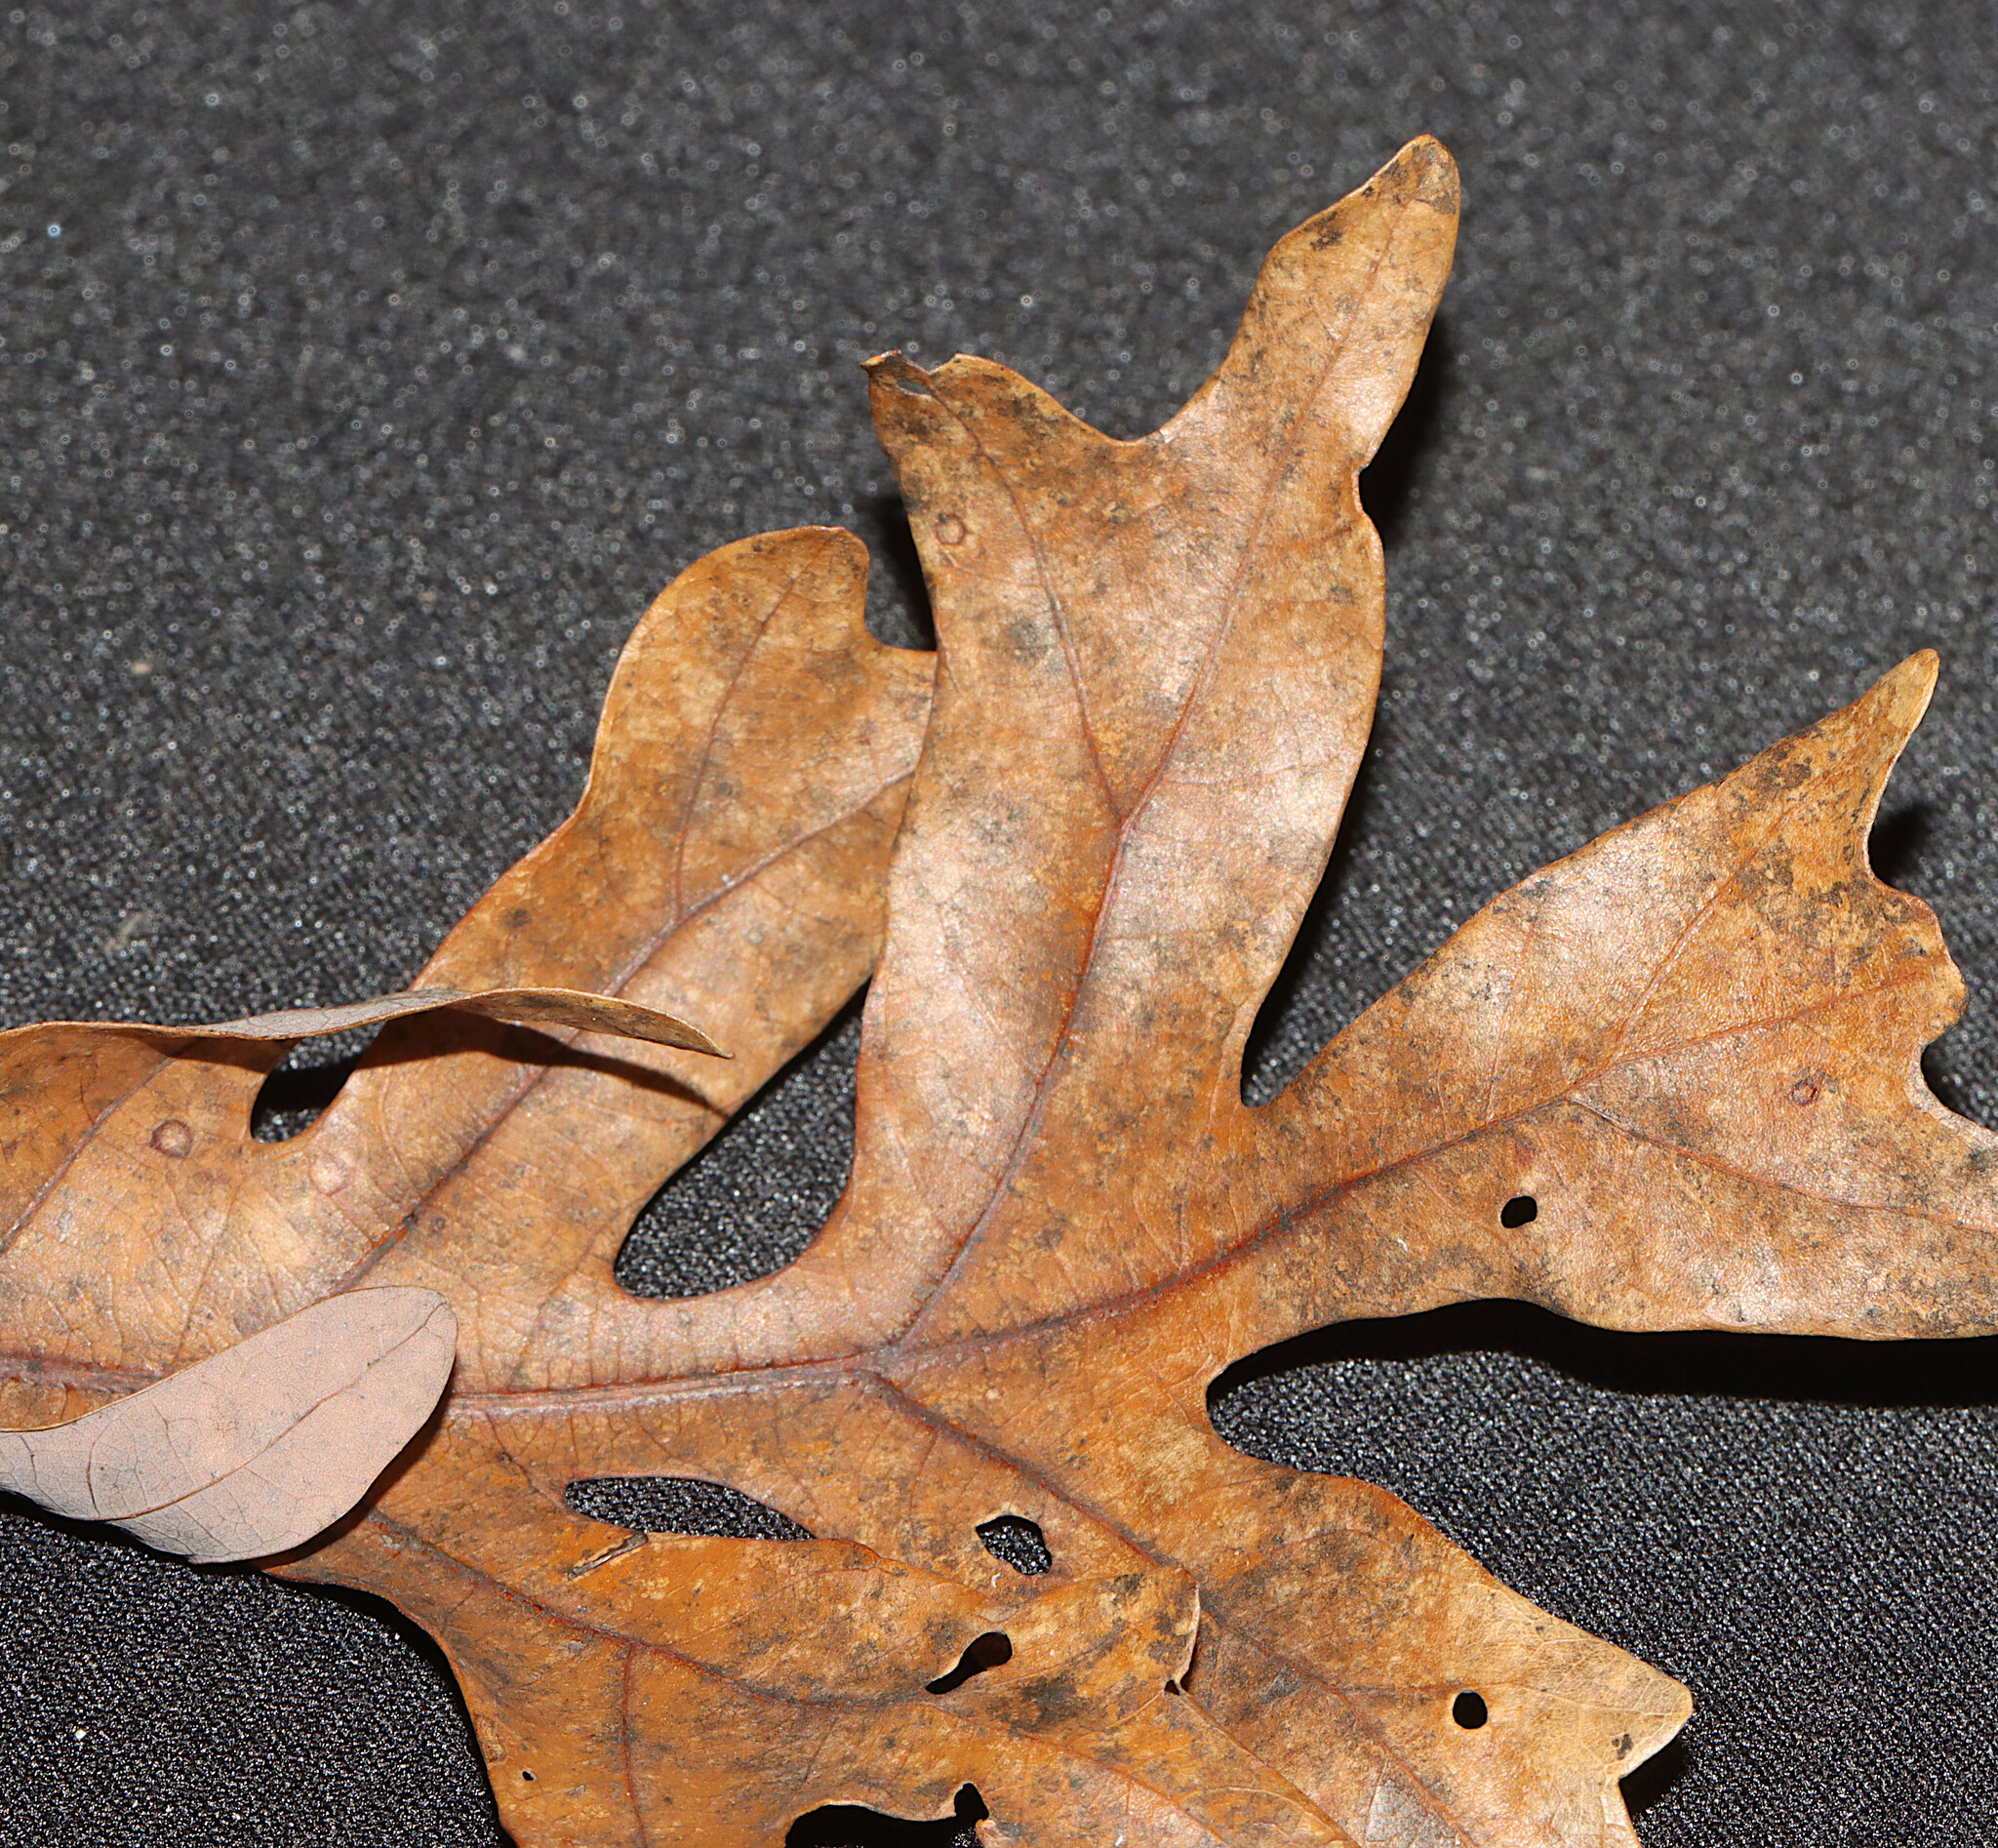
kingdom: Plantae
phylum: Tracheophyta
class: Magnoliopsida
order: Fagales
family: Fagaceae
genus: Quercus
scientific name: Quercus alba
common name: White oak
